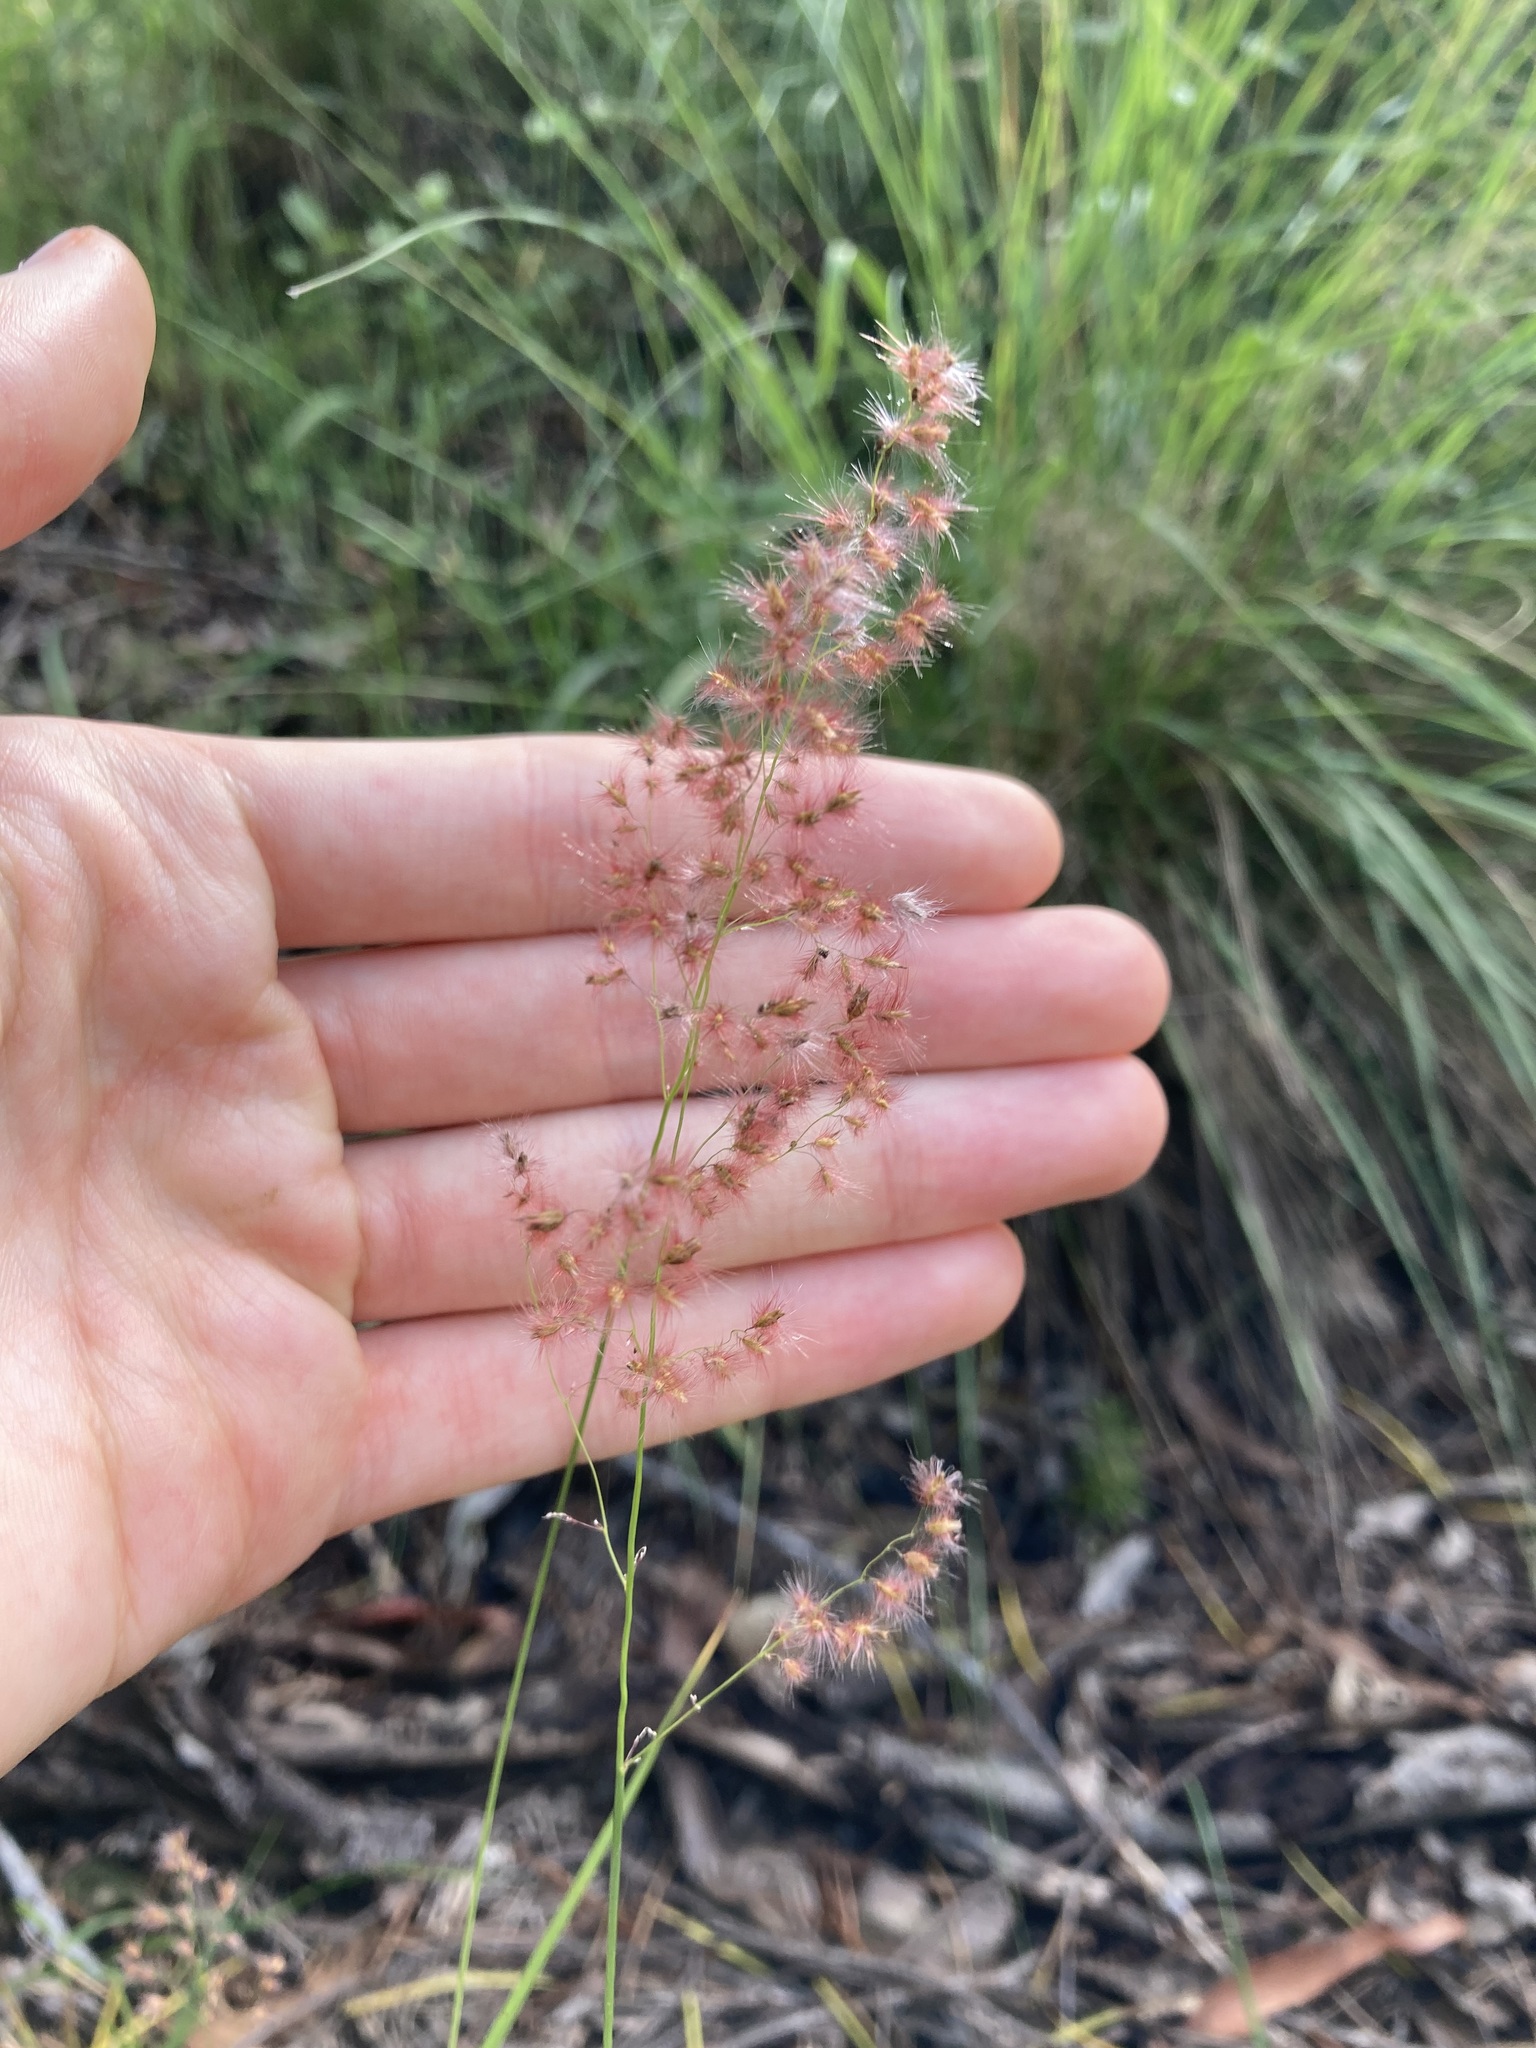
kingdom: Plantae
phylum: Tracheophyta
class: Liliopsida
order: Poales
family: Poaceae
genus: Melinis
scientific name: Melinis repens
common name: Rose natal grass
